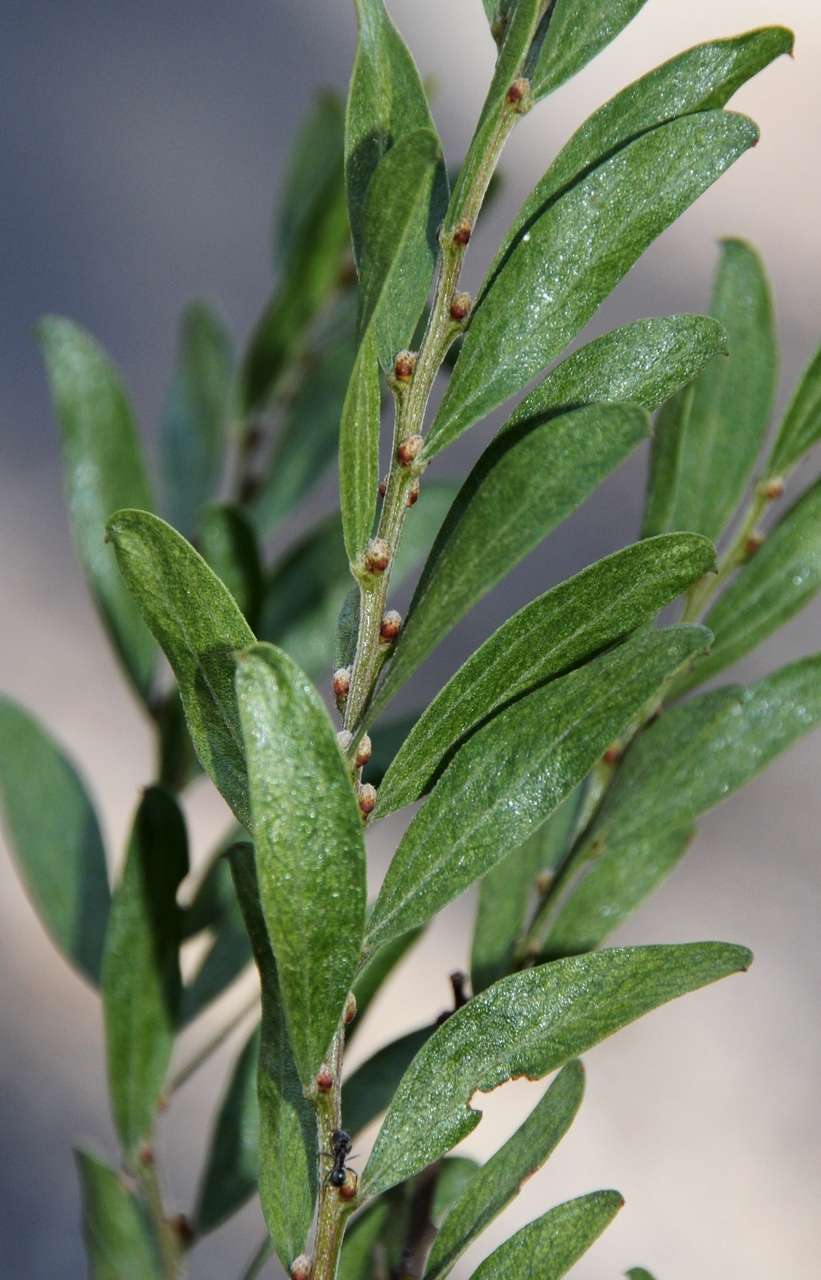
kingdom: Plantae
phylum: Tracheophyta
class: Magnoliopsida
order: Fabales
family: Fabaceae
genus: Acacia
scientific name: Acacia rostriformis
